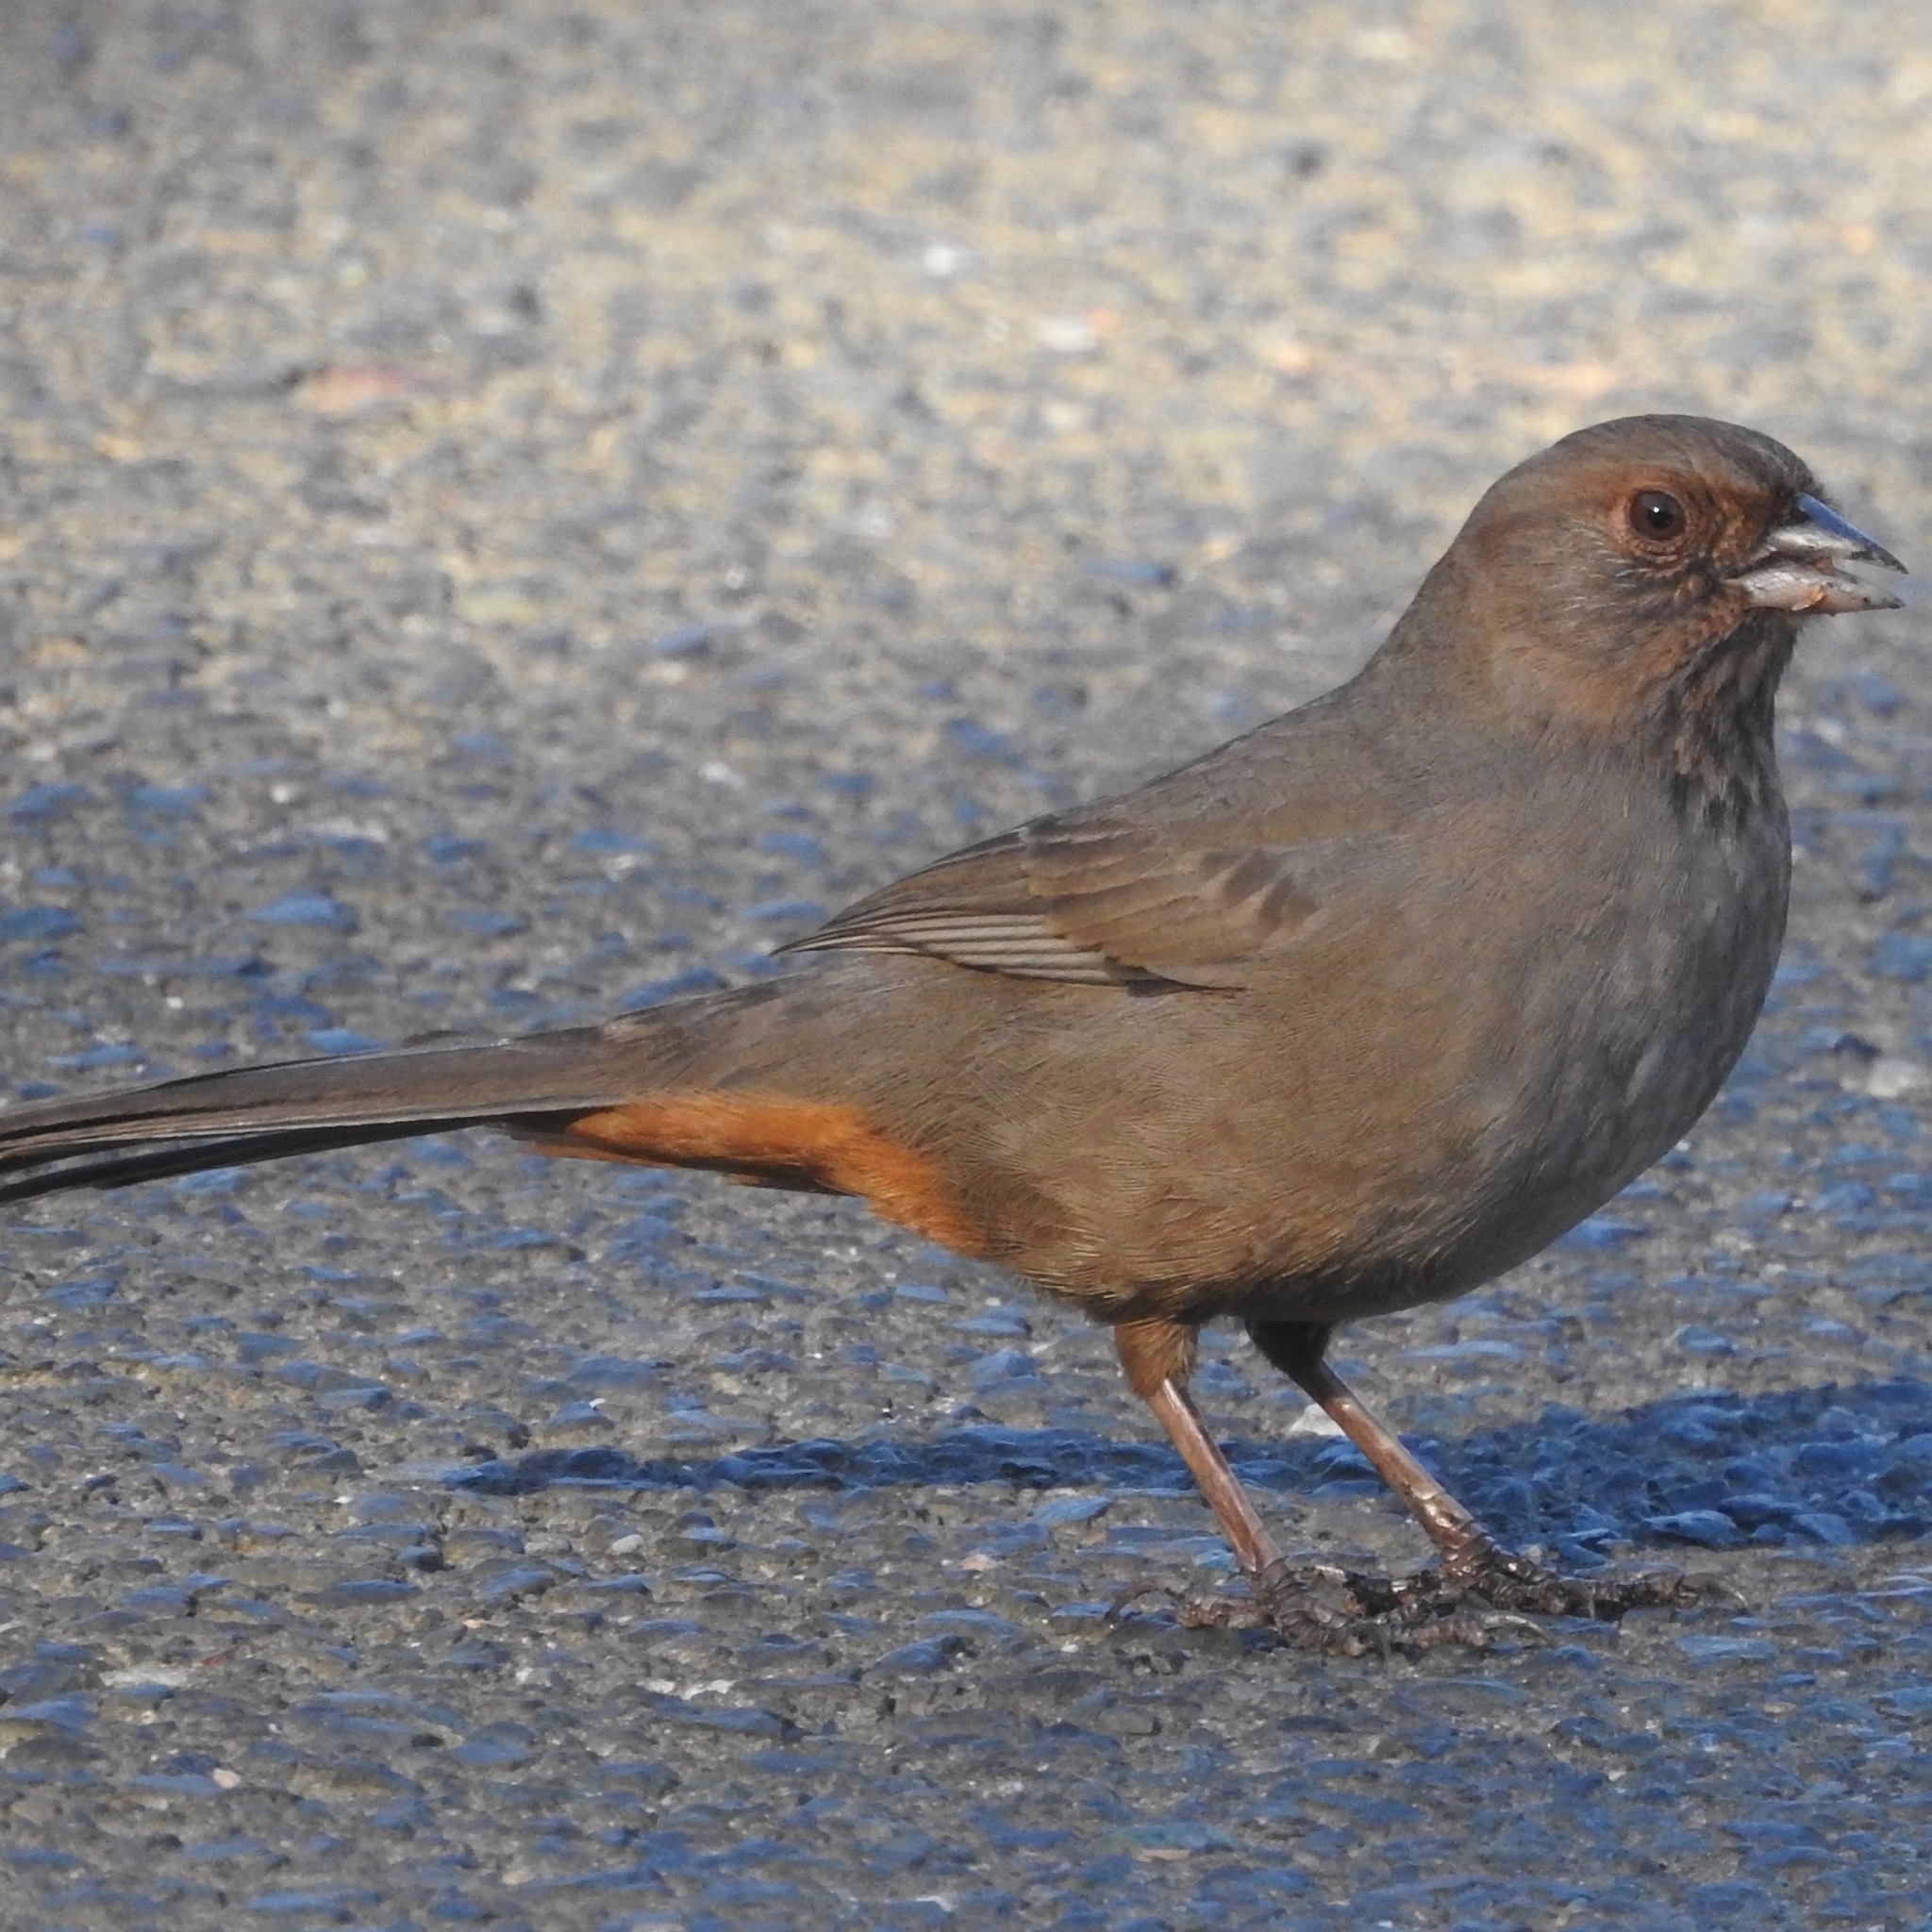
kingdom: Animalia
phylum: Chordata
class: Aves
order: Passeriformes
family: Passerellidae
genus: Melozone
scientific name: Melozone crissalis
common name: California towhee
